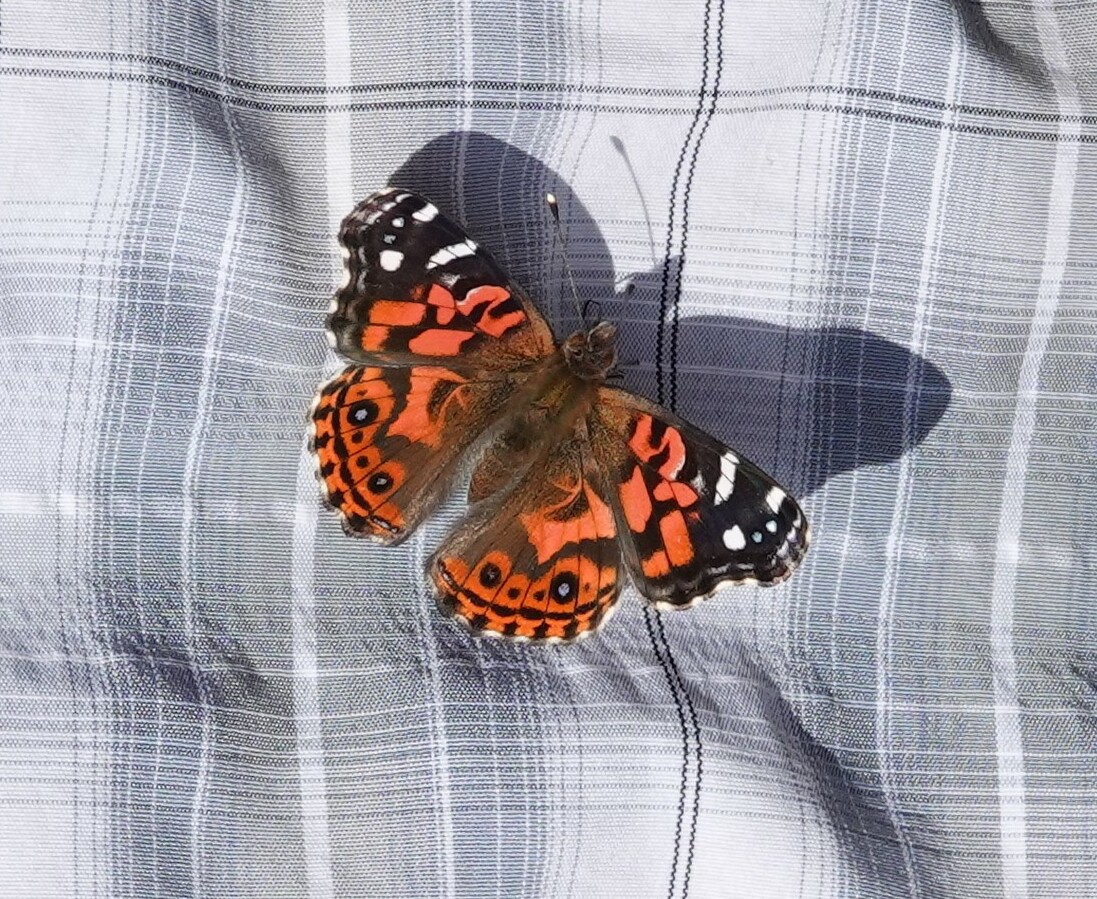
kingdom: Animalia
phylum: Arthropoda
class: Insecta
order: Lepidoptera
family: Nymphalidae
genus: Vanessa
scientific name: Vanessa braziliensis
